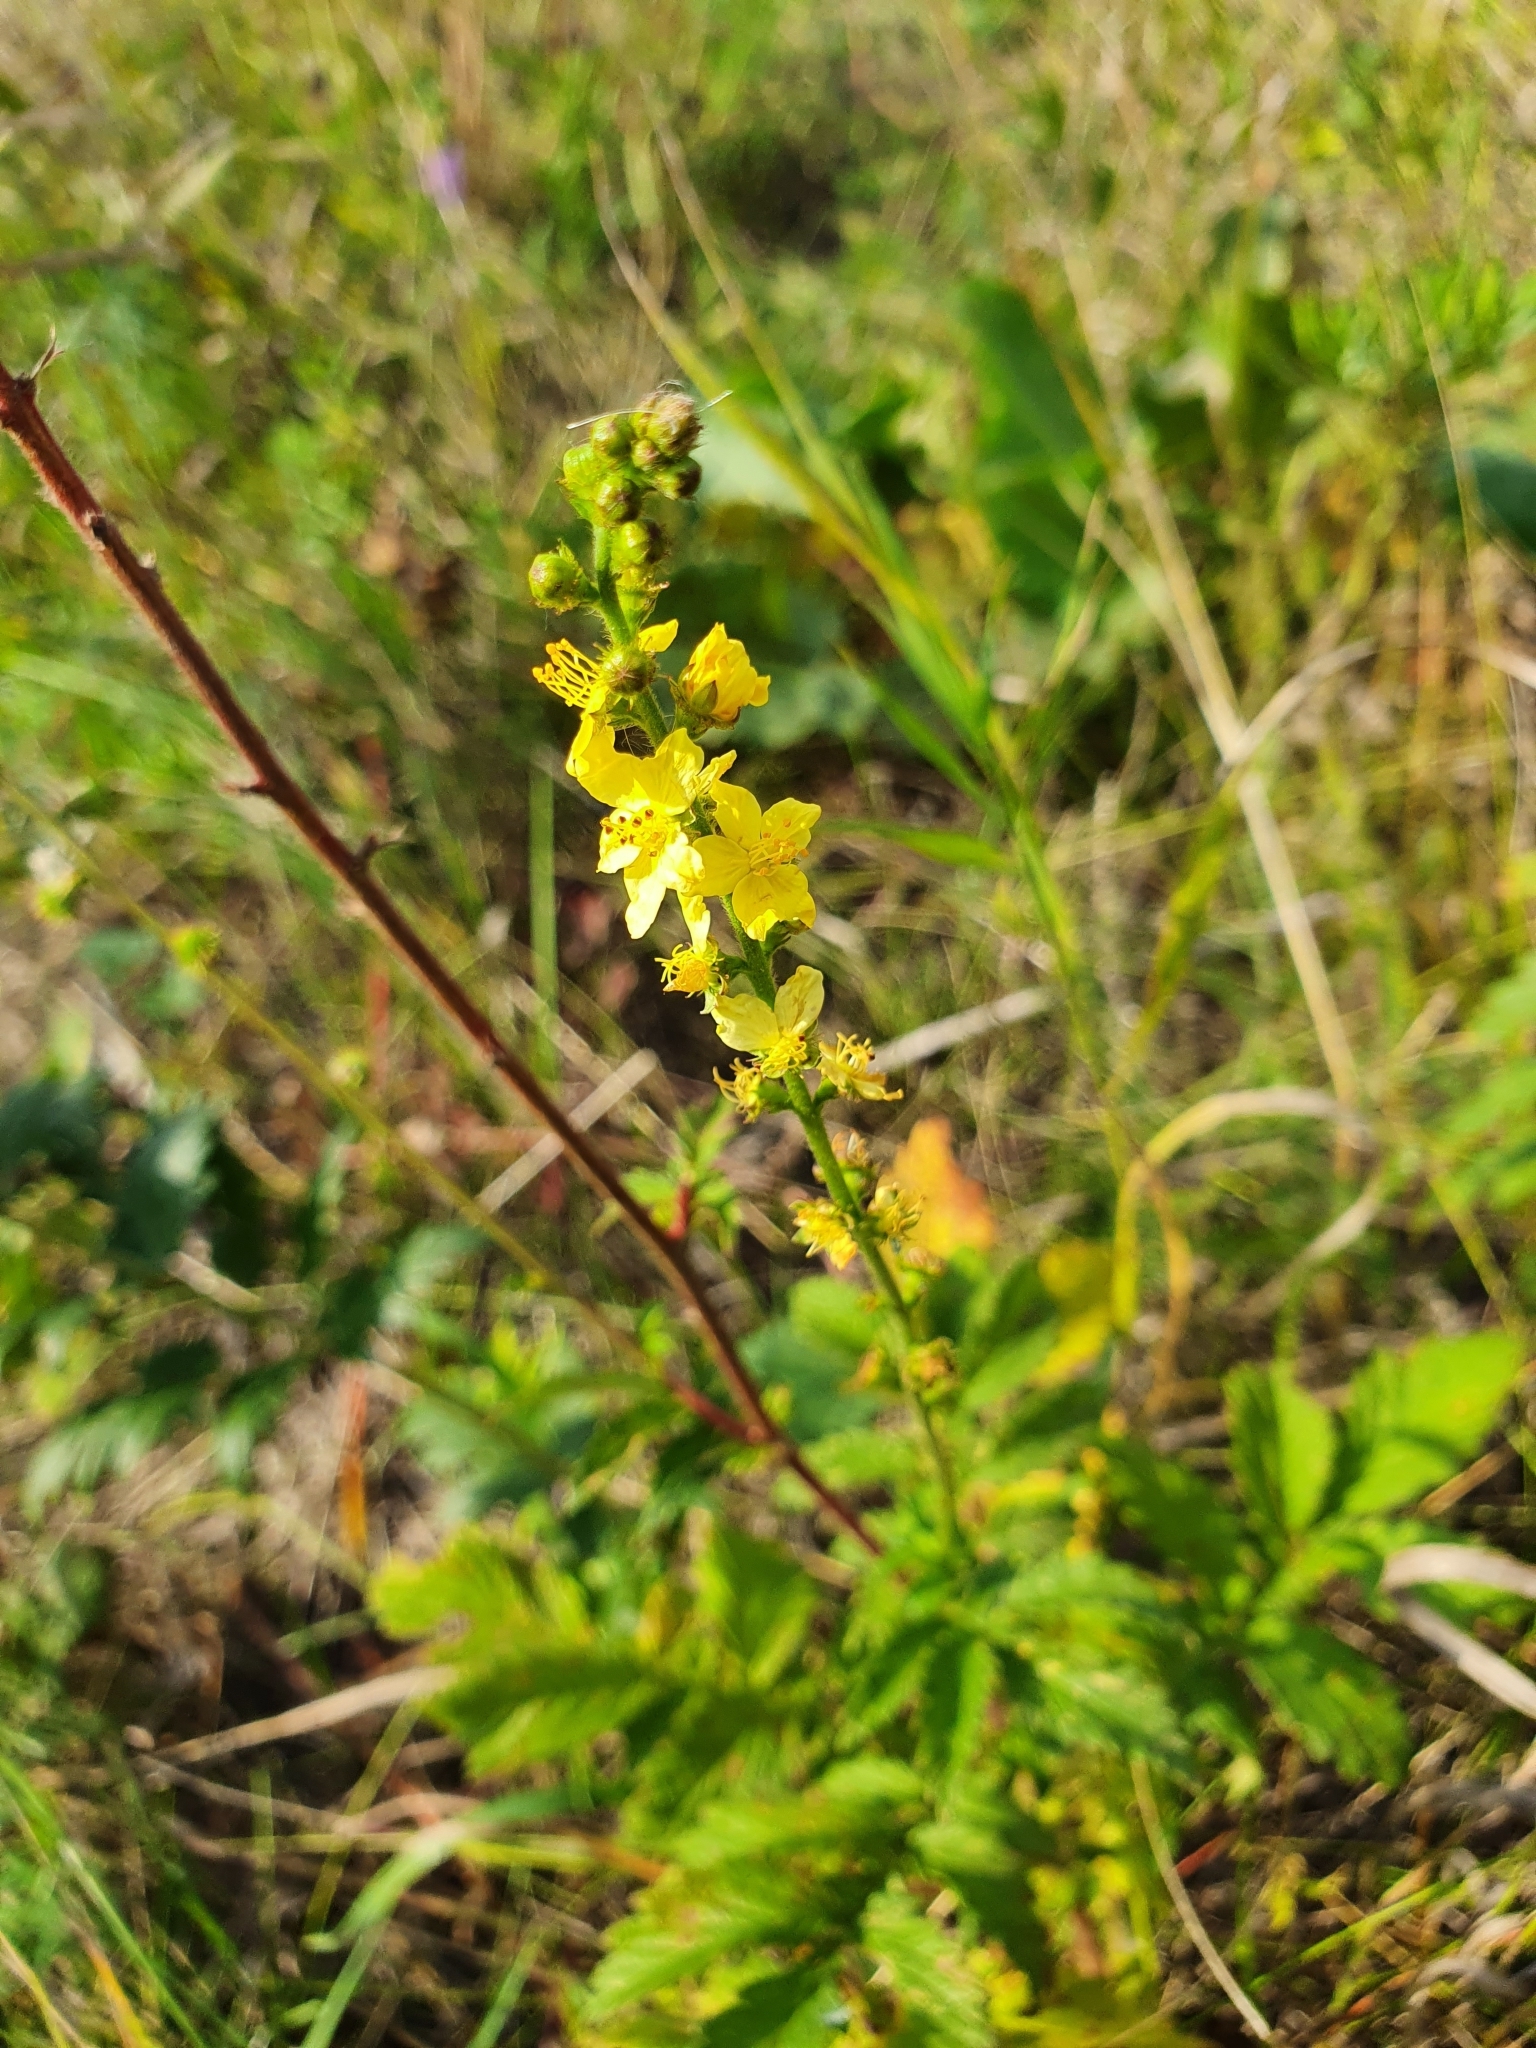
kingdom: Plantae
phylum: Tracheophyta
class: Magnoliopsida
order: Rosales
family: Rosaceae
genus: Agrimonia
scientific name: Agrimonia eupatoria
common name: Agrimony
